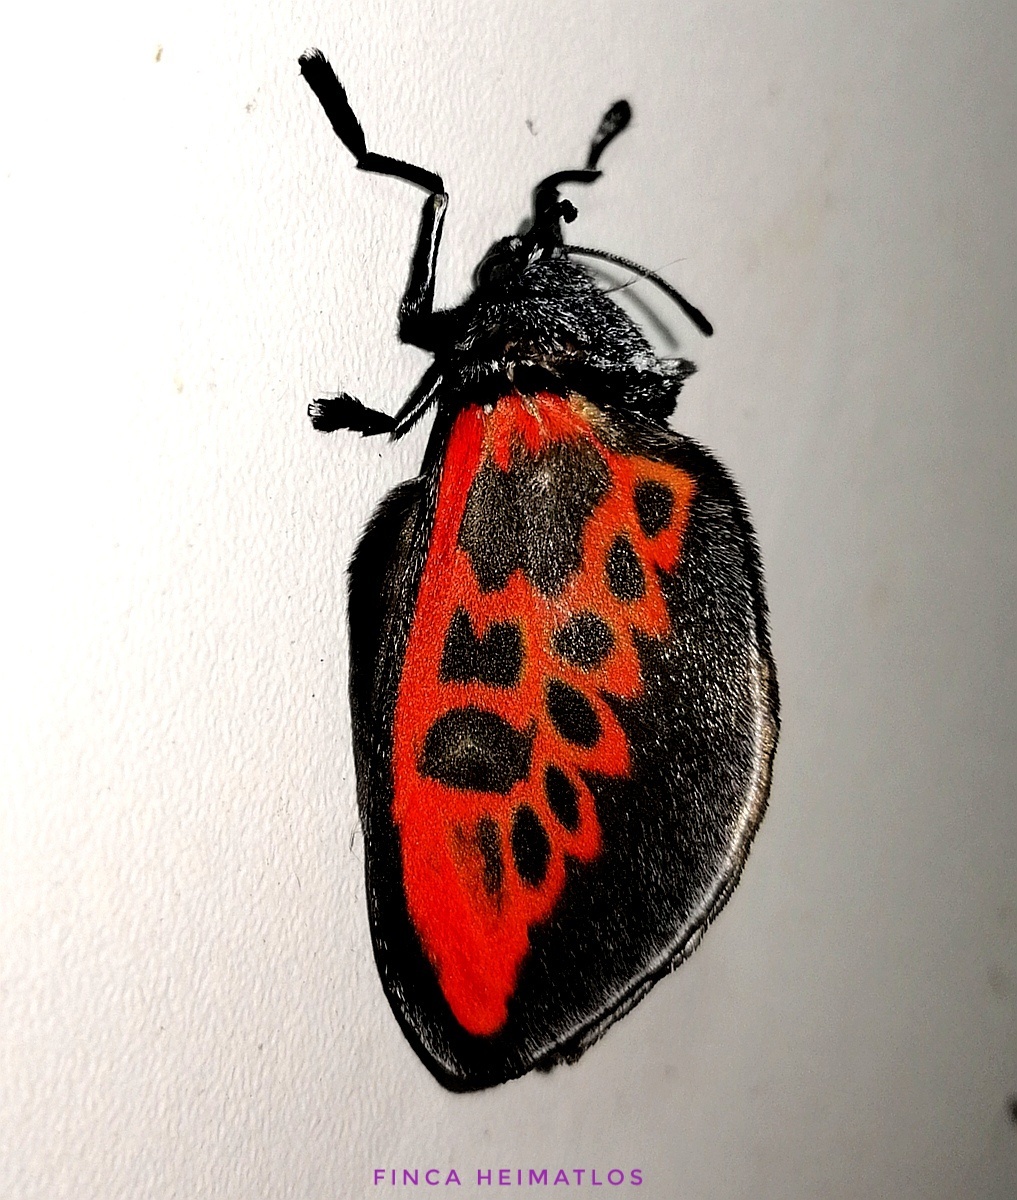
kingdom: Animalia
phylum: Arthropoda
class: Insecta
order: Lepidoptera
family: Megalopygidae
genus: Langucys
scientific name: Langucys bicolor
